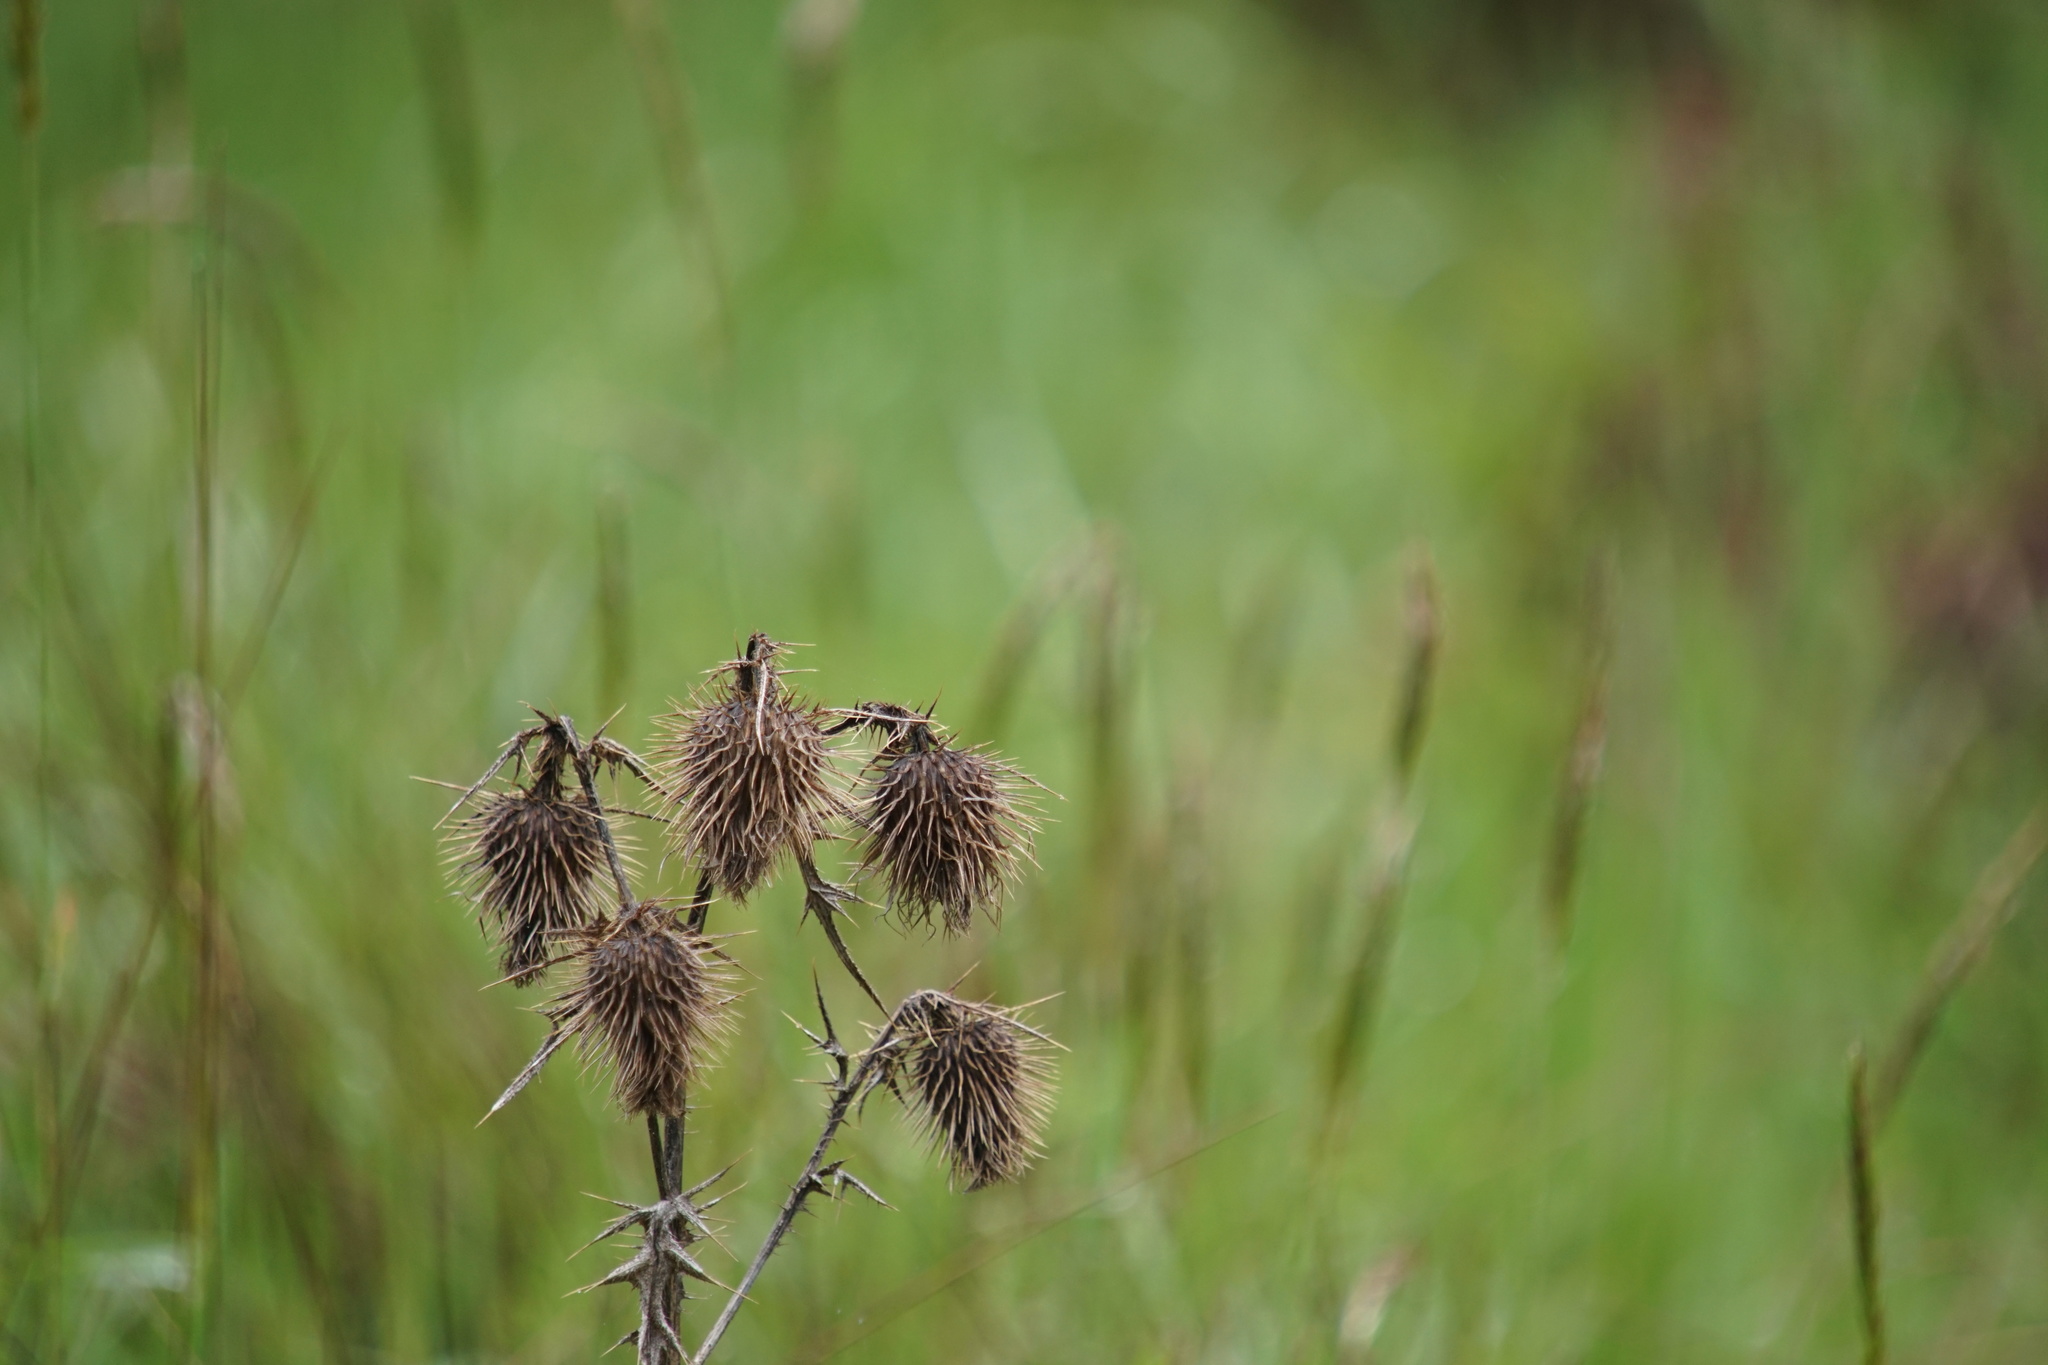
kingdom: Plantae
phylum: Tracheophyta
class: Magnoliopsida
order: Asterales
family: Asteraceae
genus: Cirsium
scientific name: Cirsium vulgare
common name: Bull thistle
